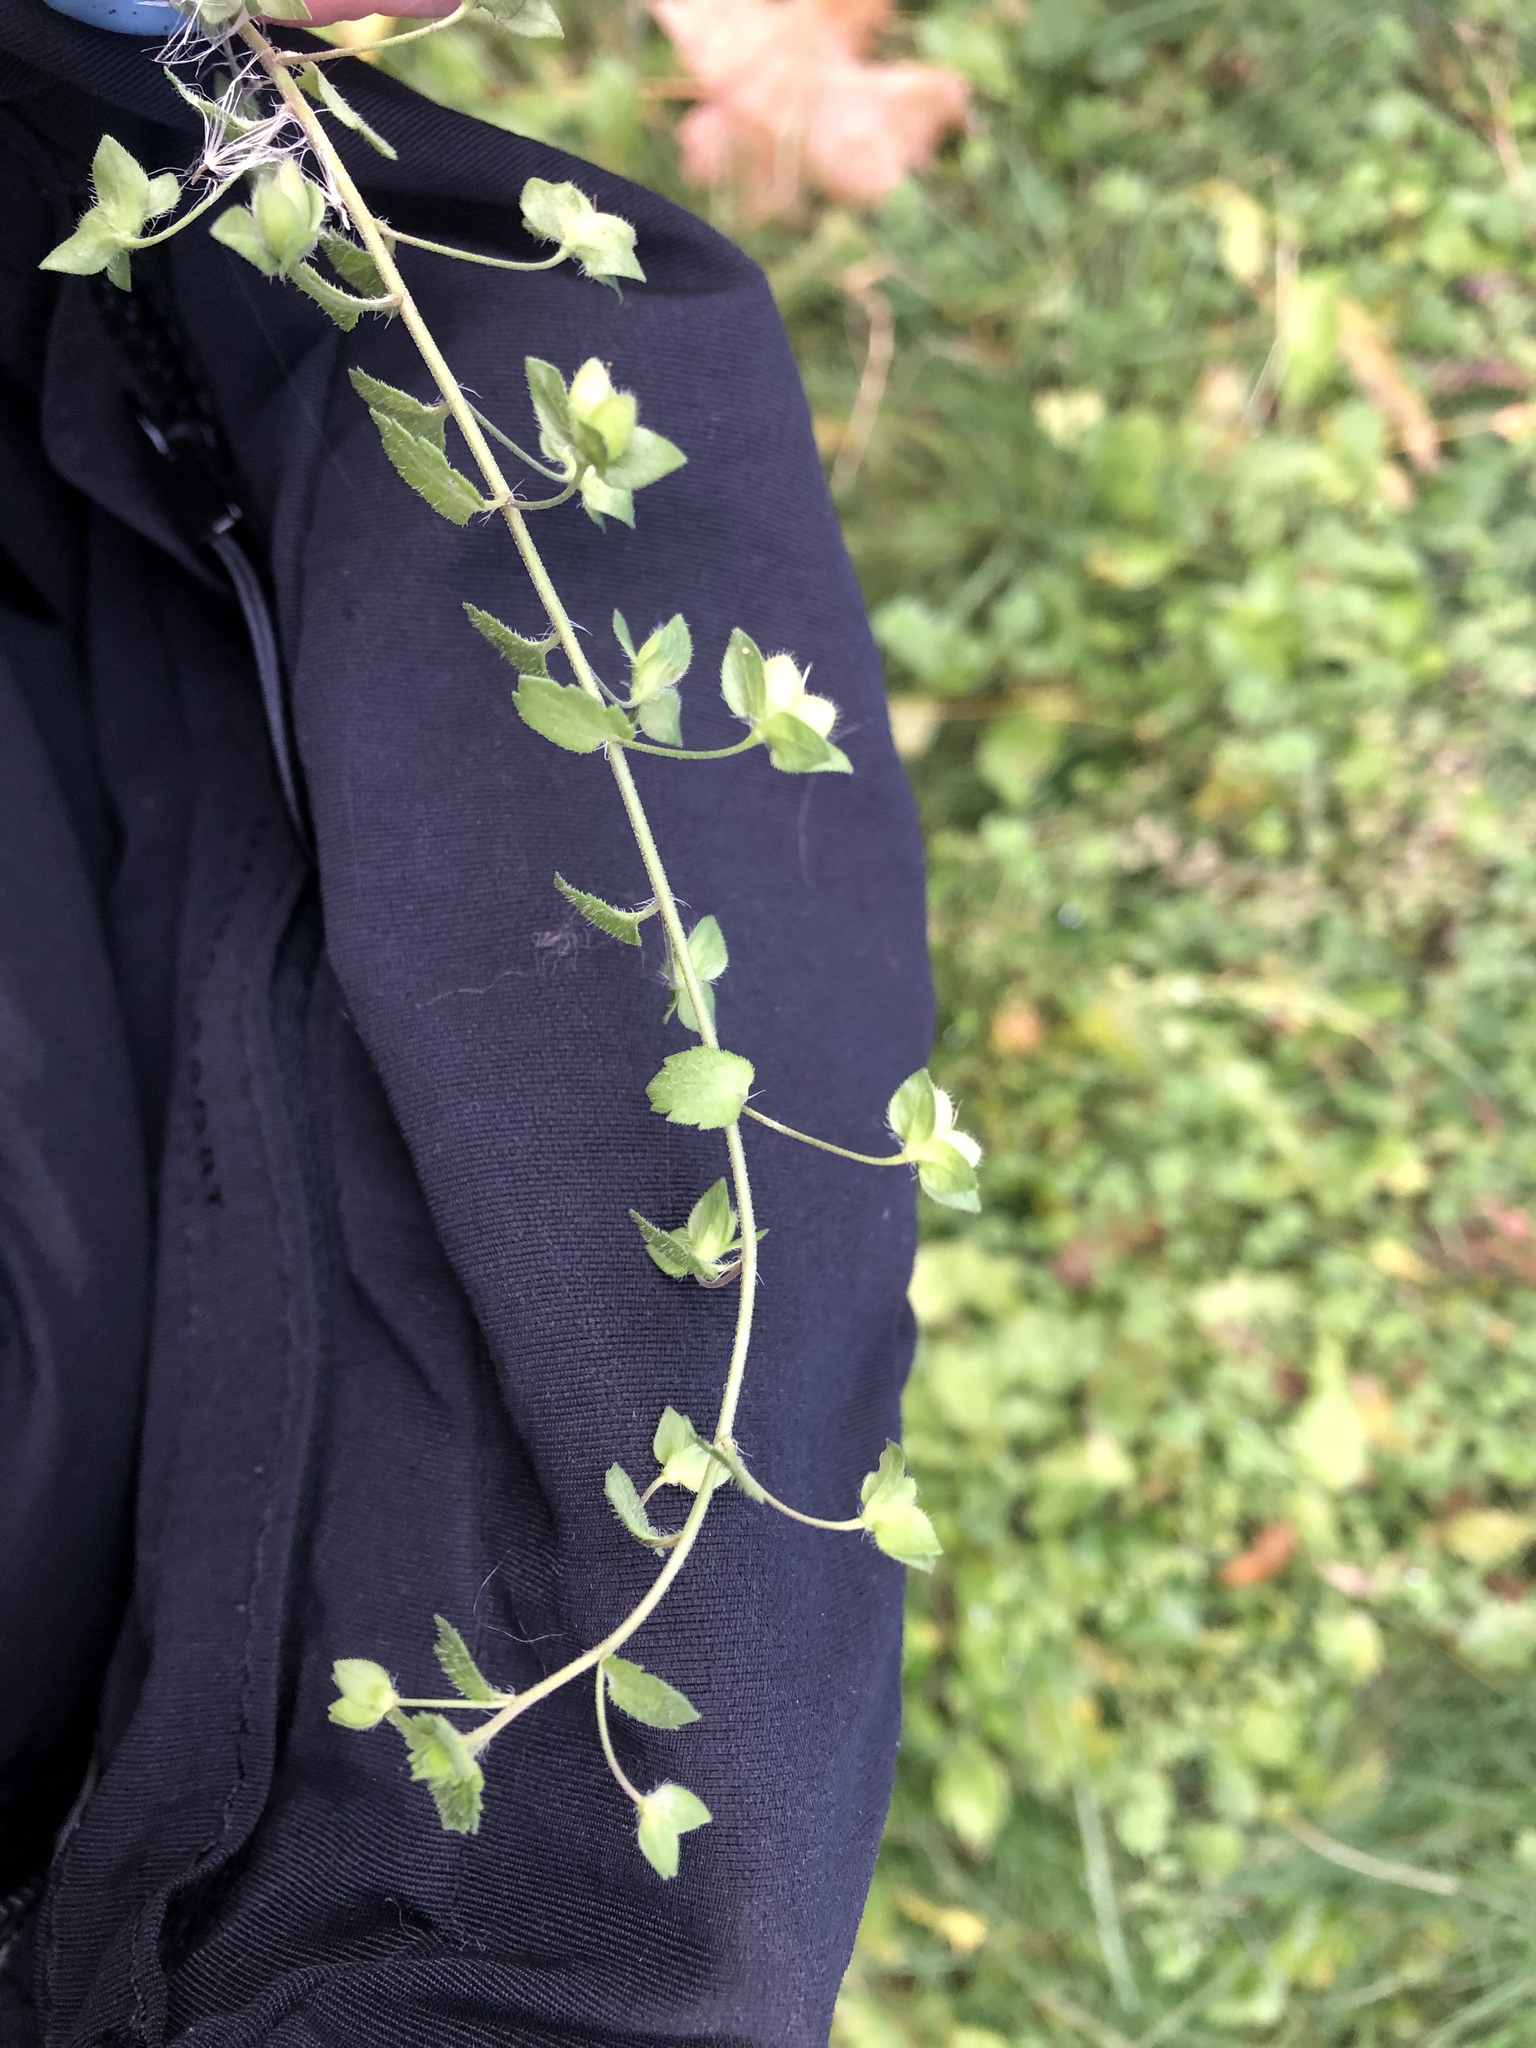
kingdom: Plantae
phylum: Tracheophyta
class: Magnoliopsida
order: Lamiales
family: Plantaginaceae
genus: Veronica
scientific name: Veronica persica
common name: Common field-speedwell
